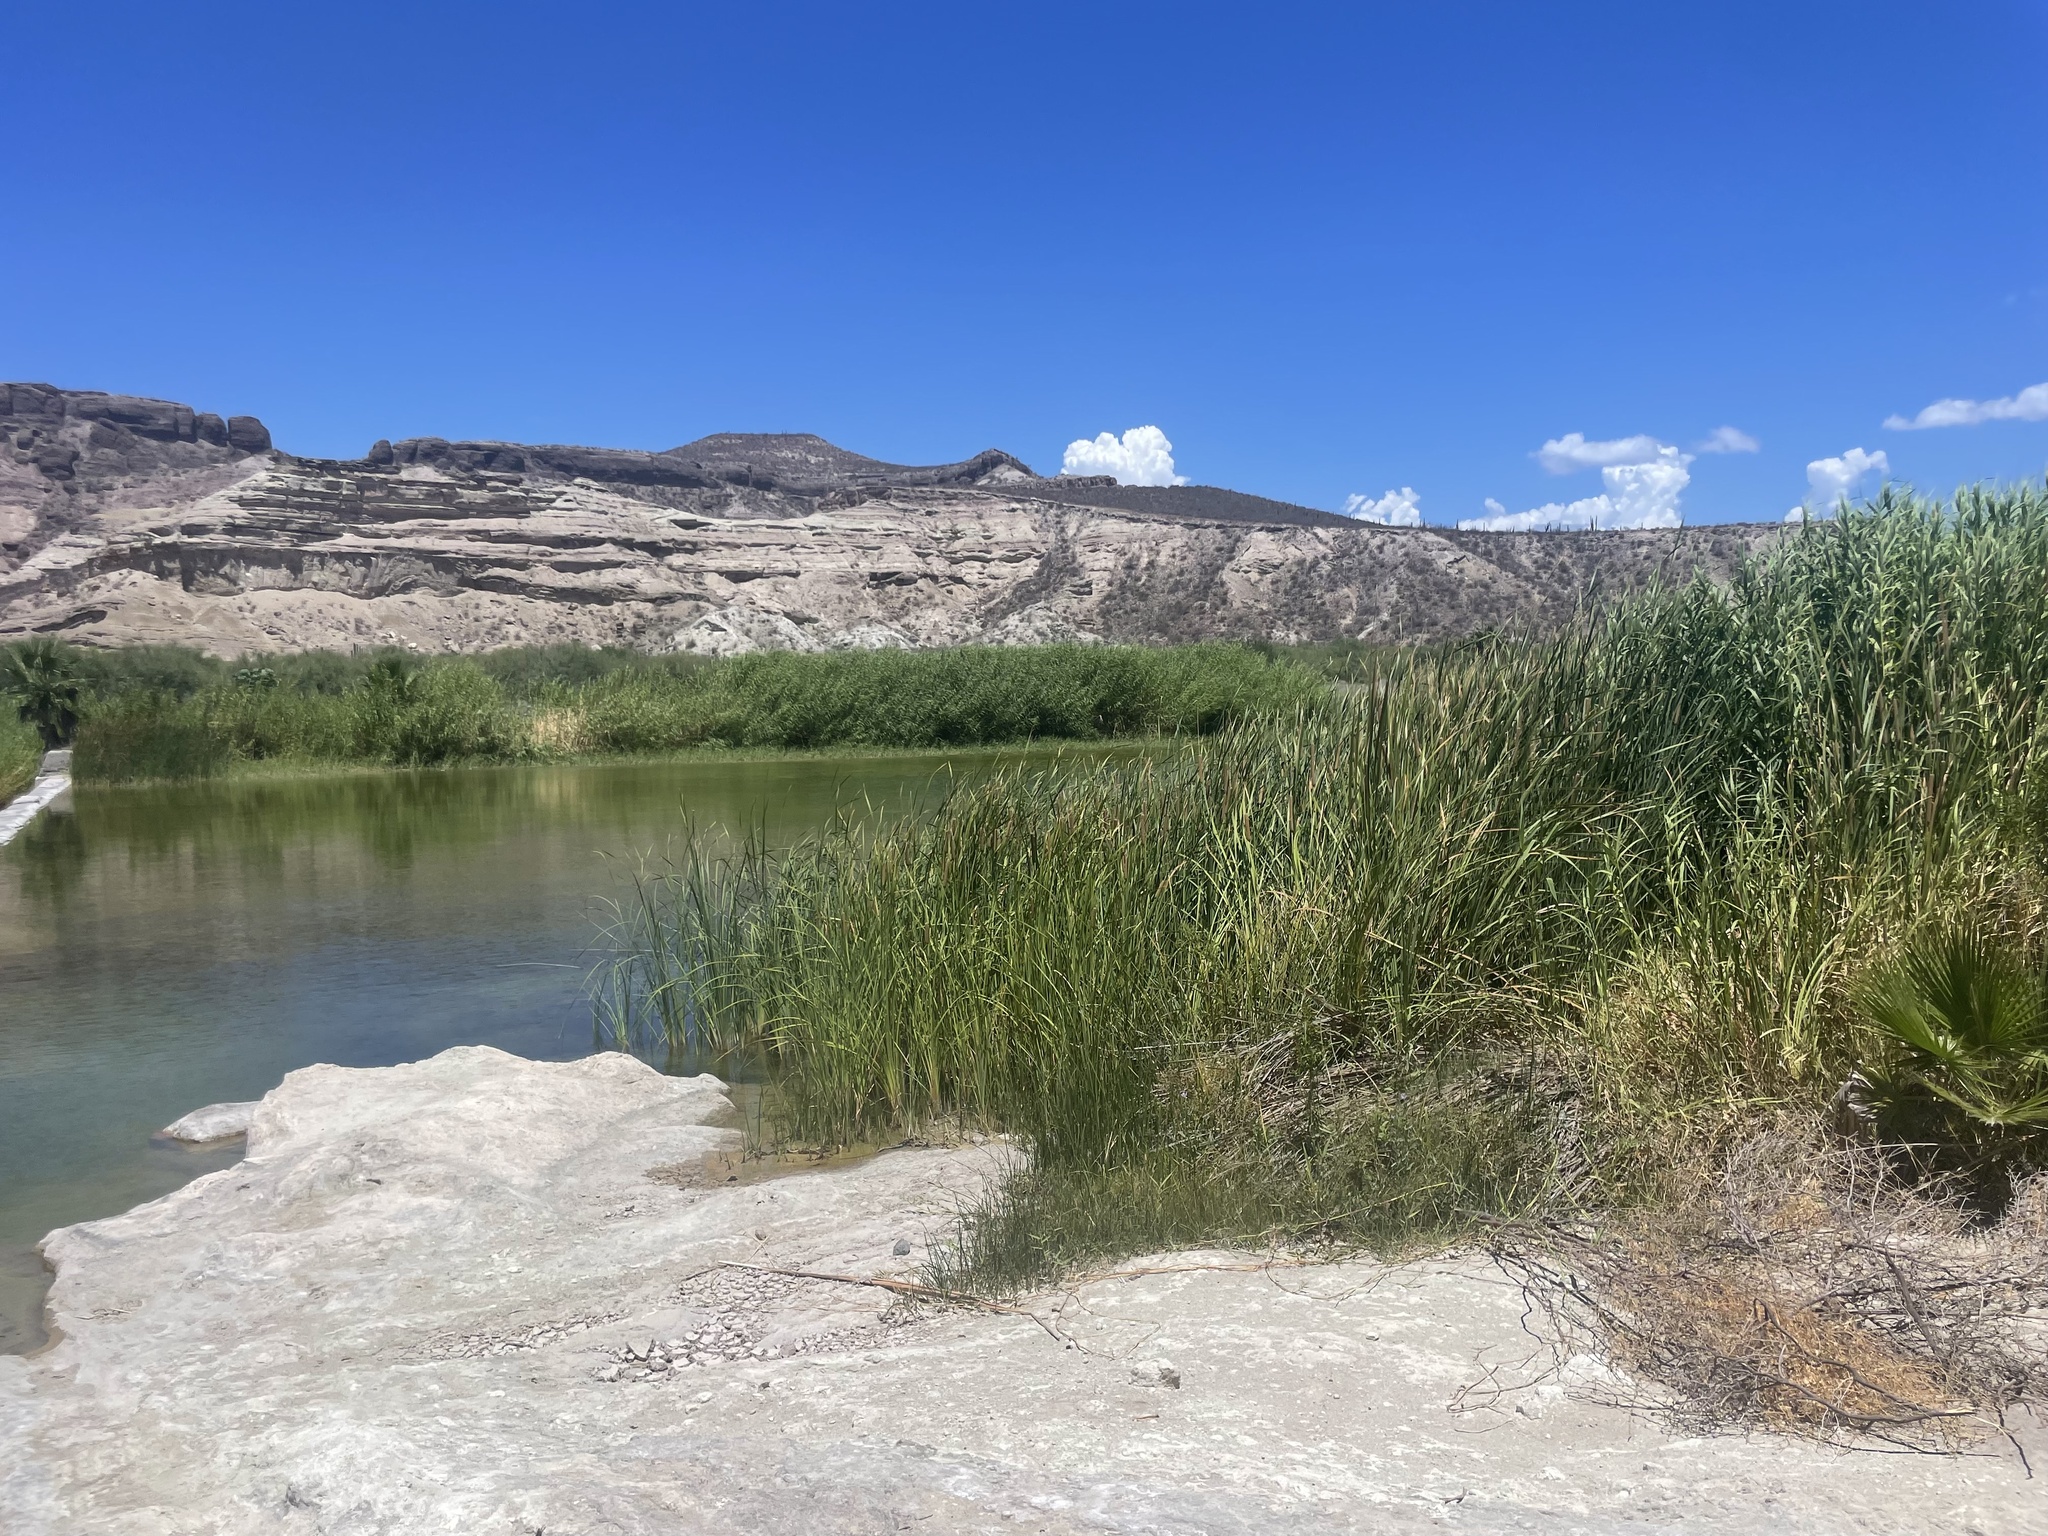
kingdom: Plantae
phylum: Tracheophyta
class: Liliopsida
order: Poales
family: Poaceae
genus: Phragmites
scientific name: Phragmites australis
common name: Common reed
